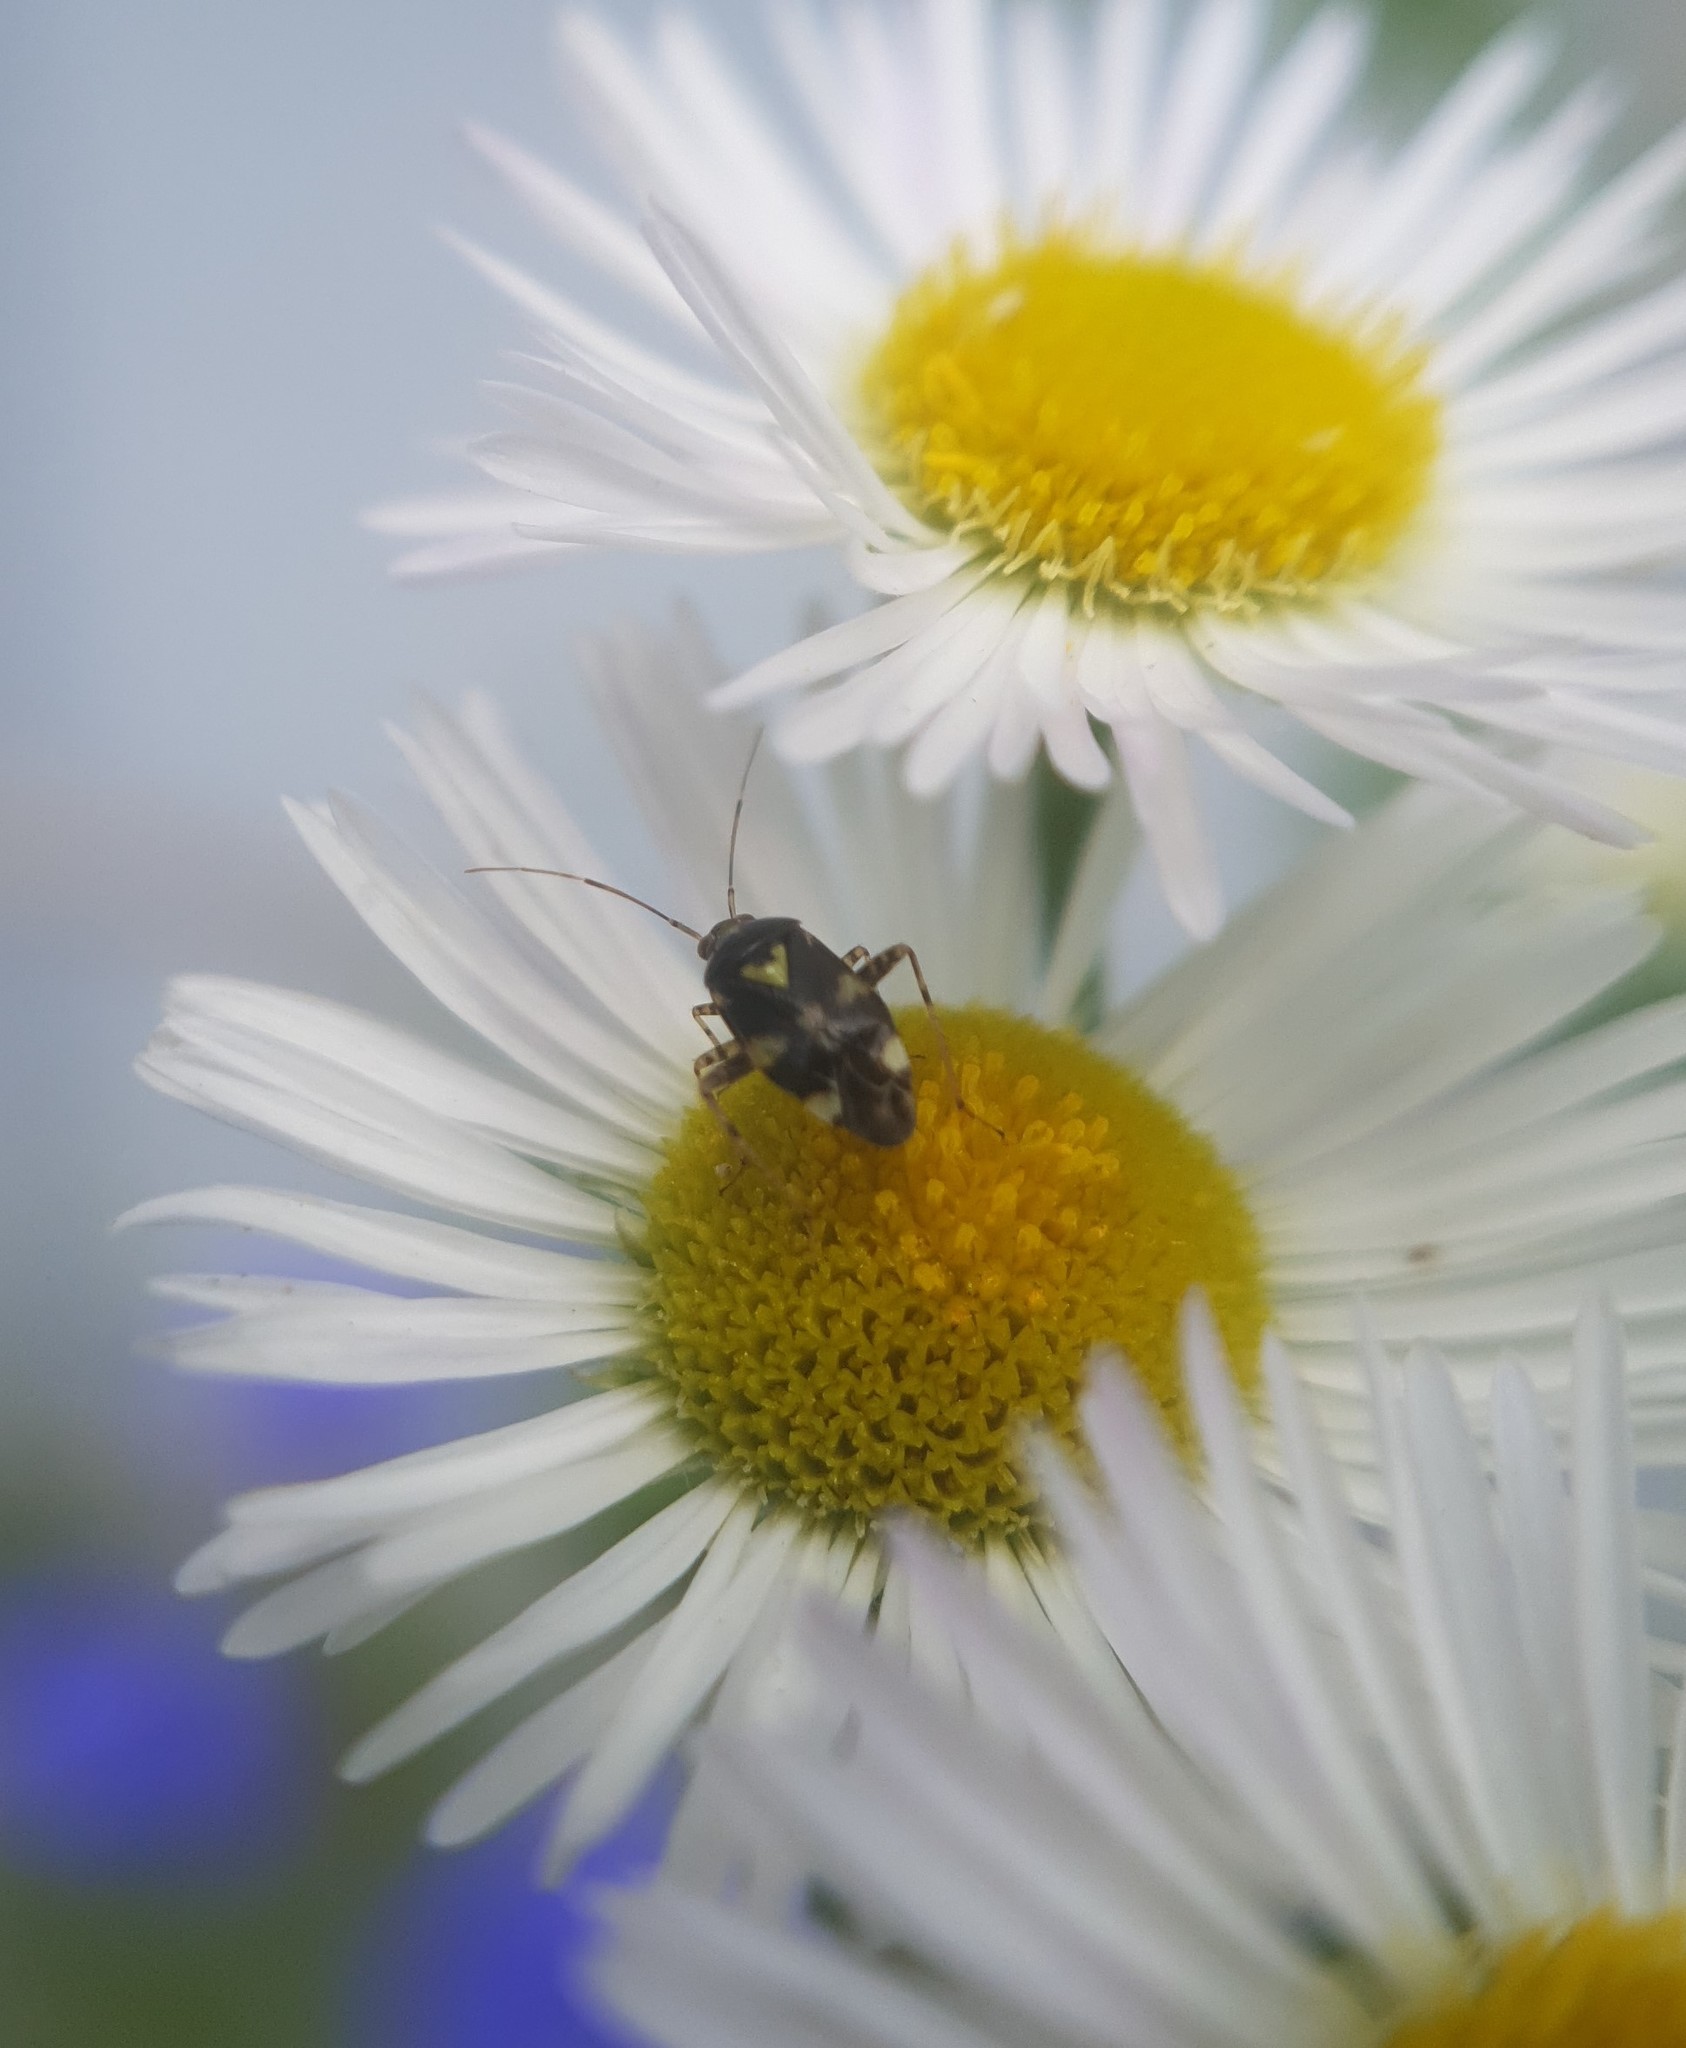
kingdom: Animalia
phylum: Arthropoda
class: Insecta
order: Hemiptera
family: Miridae
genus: Liocoris
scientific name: Liocoris tripustulatus
